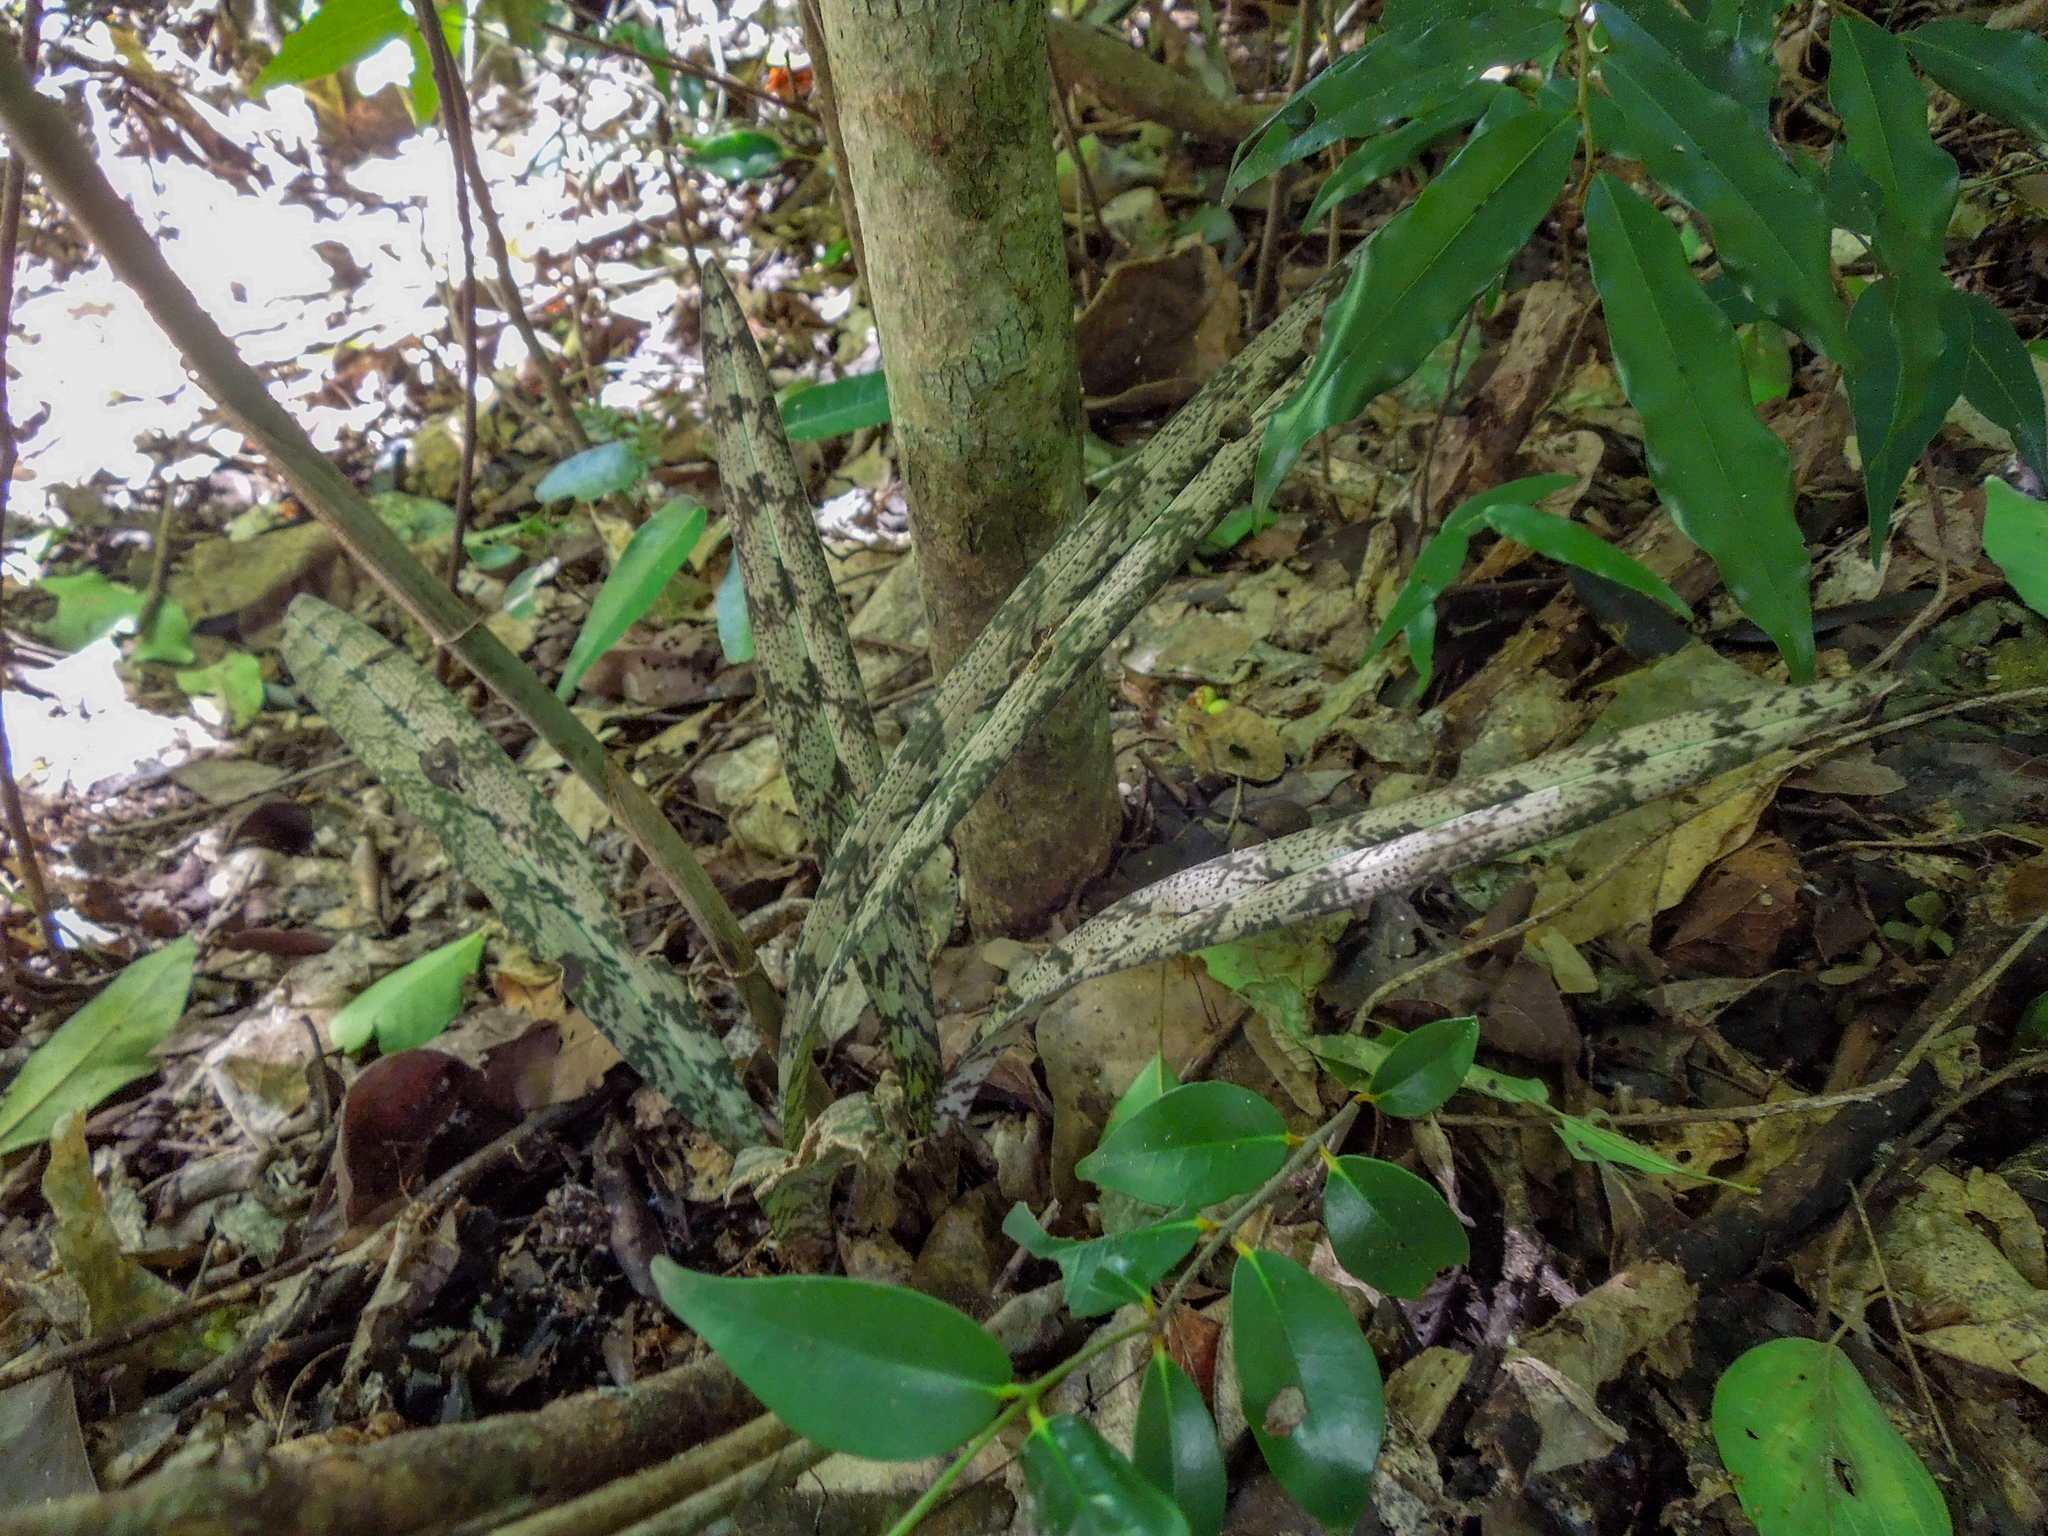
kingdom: Plantae
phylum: Tracheophyta
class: Liliopsida
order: Asparagales
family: Orchidaceae
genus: Eulophia
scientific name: Eulophia spathulifera
